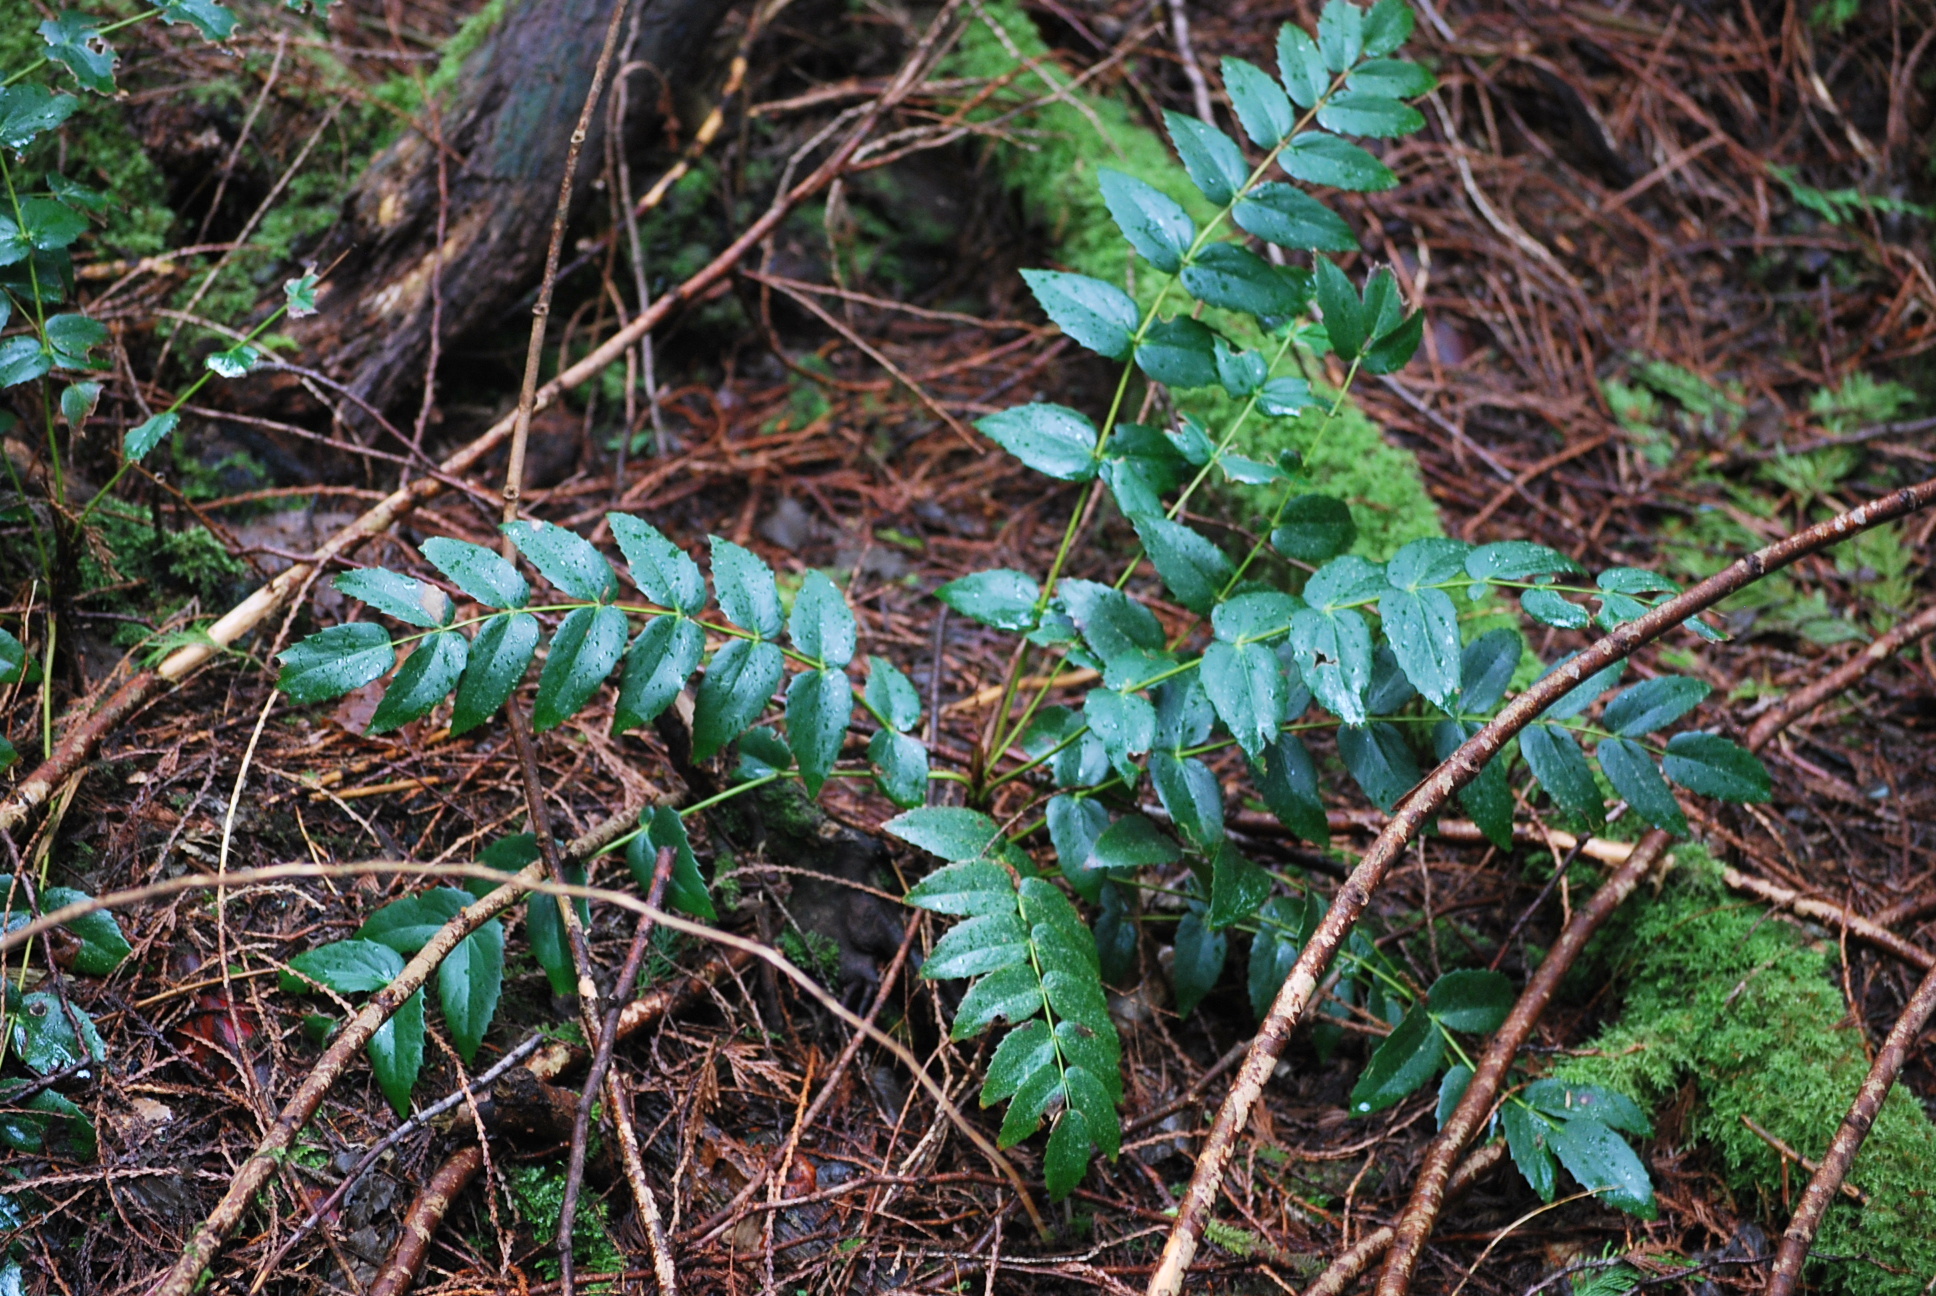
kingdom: Plantae
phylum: Tracheophyta
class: Magnoliopsida
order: Ranunculales
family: Berberidaceae
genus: Mahonia
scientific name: Mahonia nervosa
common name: Cascade oregon-grape
